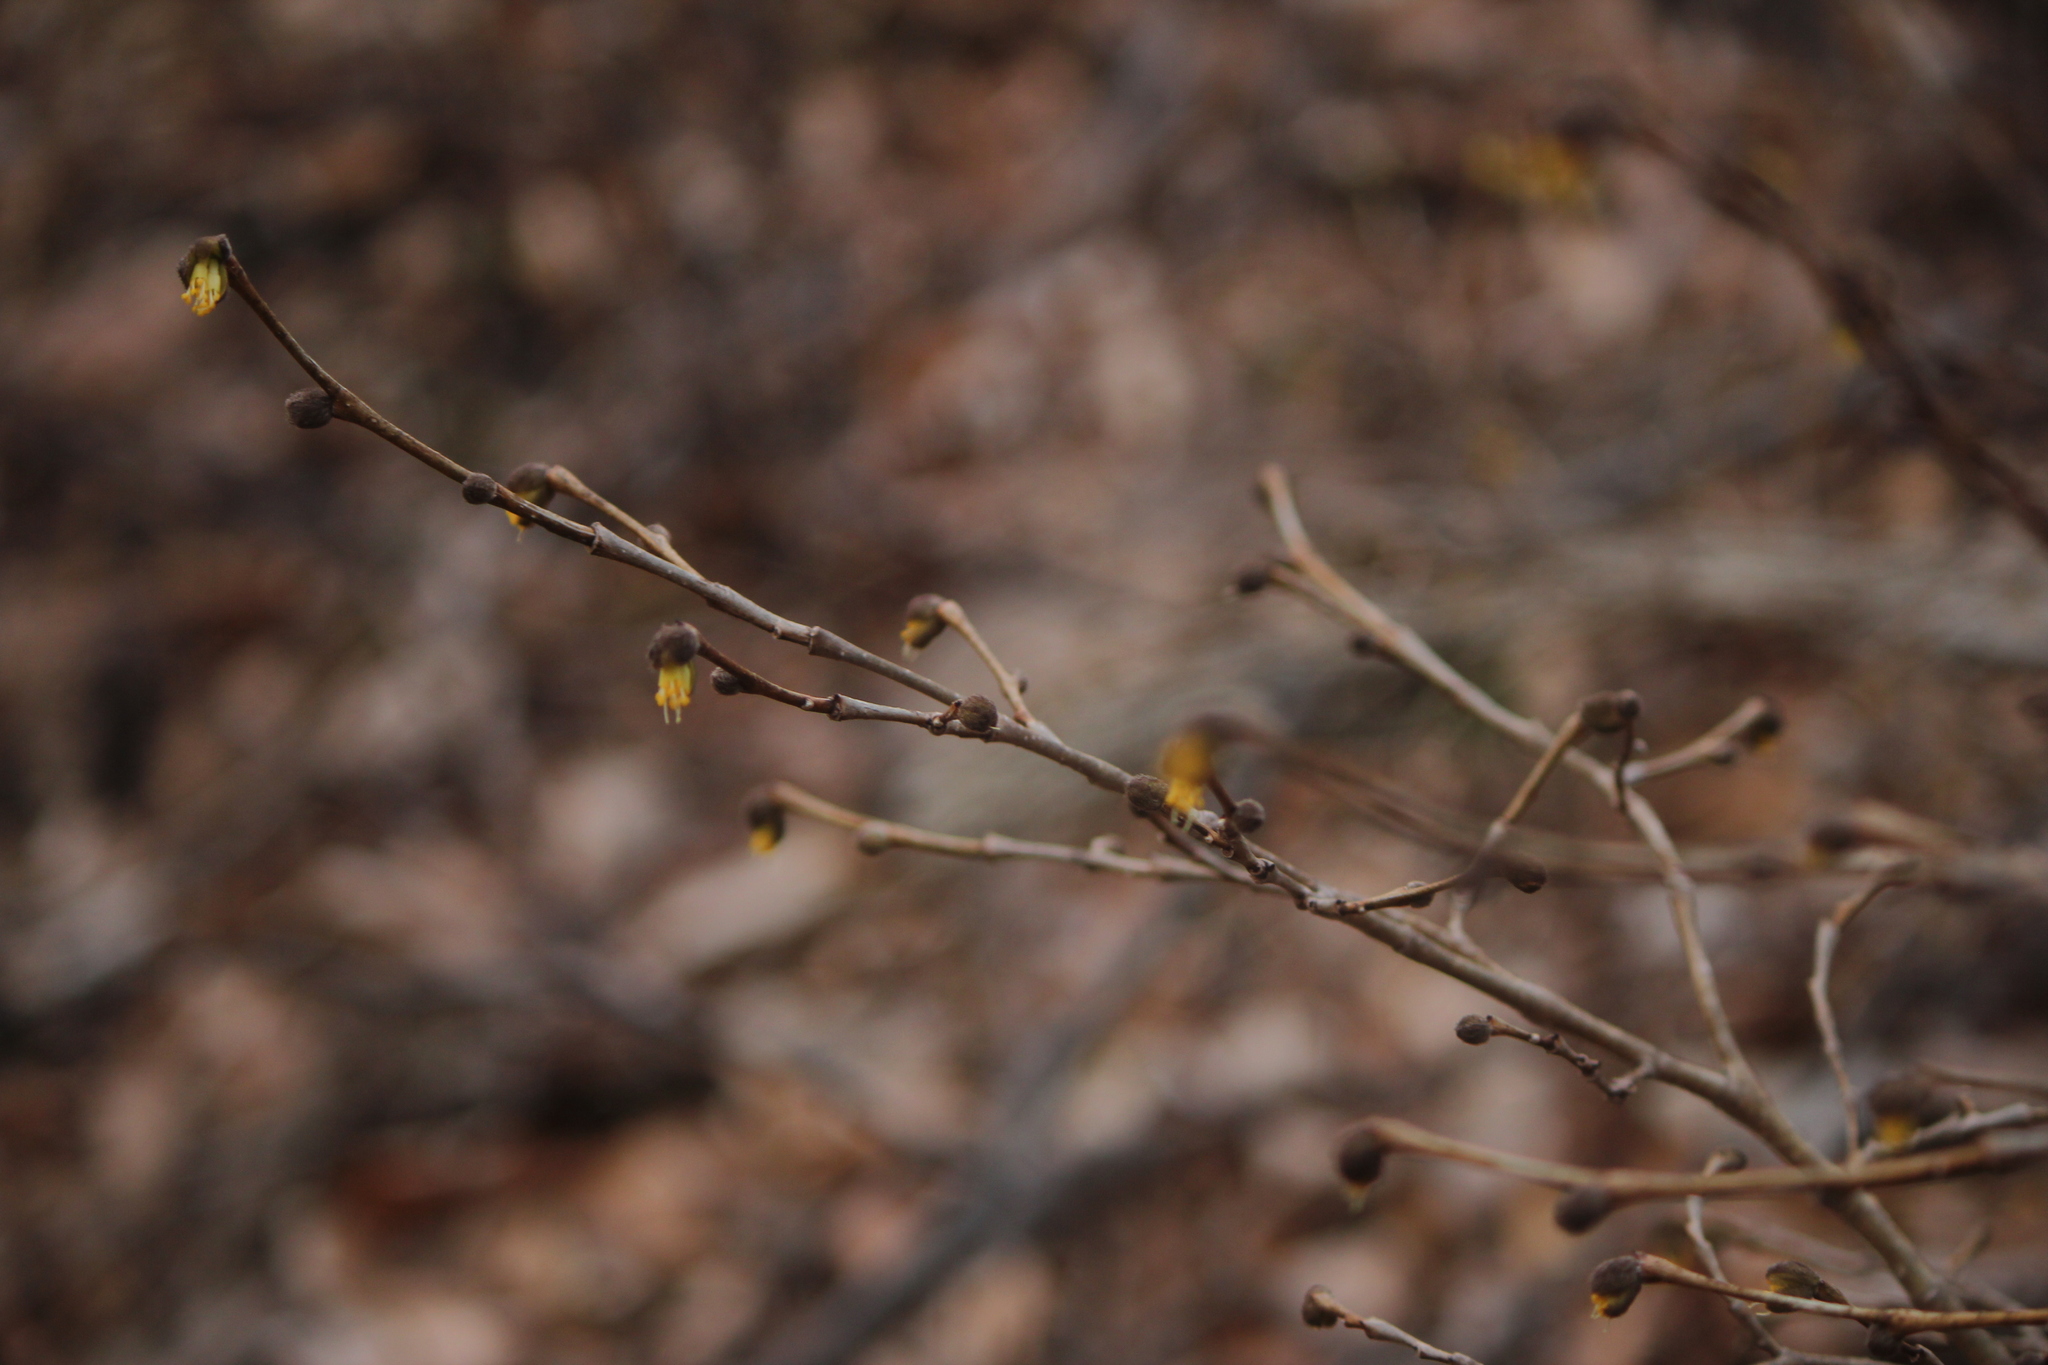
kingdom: Plantae
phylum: Tracheophyta
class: Magnoliopsida
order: Malvales
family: Thymelaeaceae
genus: Dirca
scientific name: Dirca palustris
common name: Leatherwood
